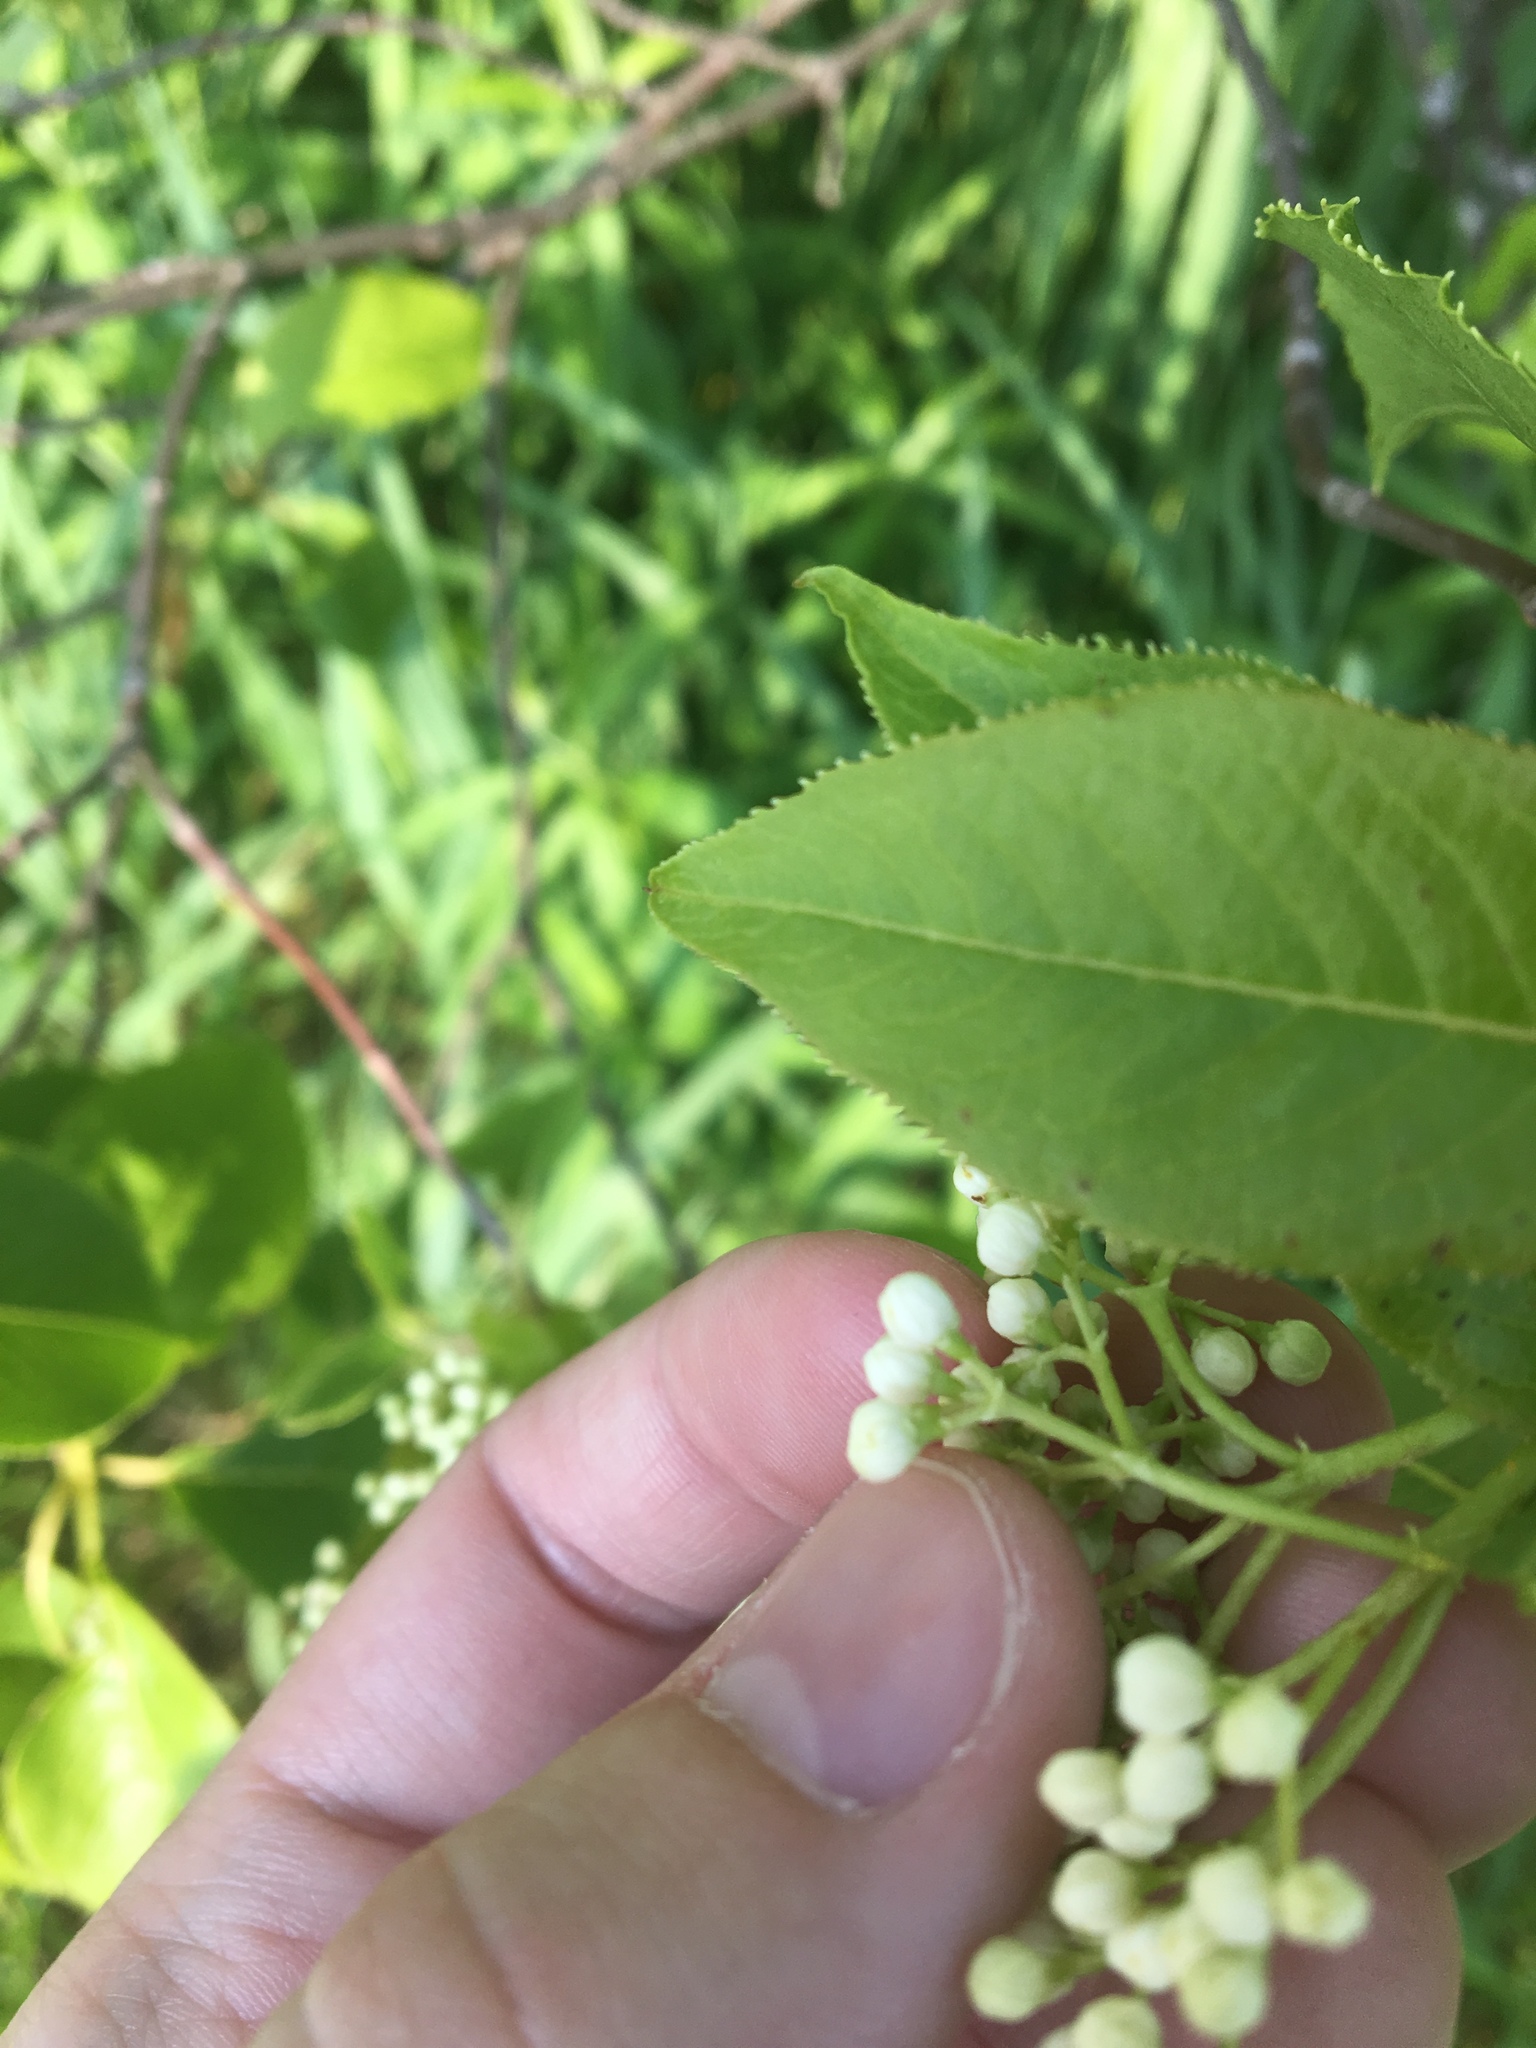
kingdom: Plantae
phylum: Tracheophyta
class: Magnoliopsida
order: Dipsacales
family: Viburnaceae
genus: Viburnum
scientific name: Viburnum lentago
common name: Black haw
